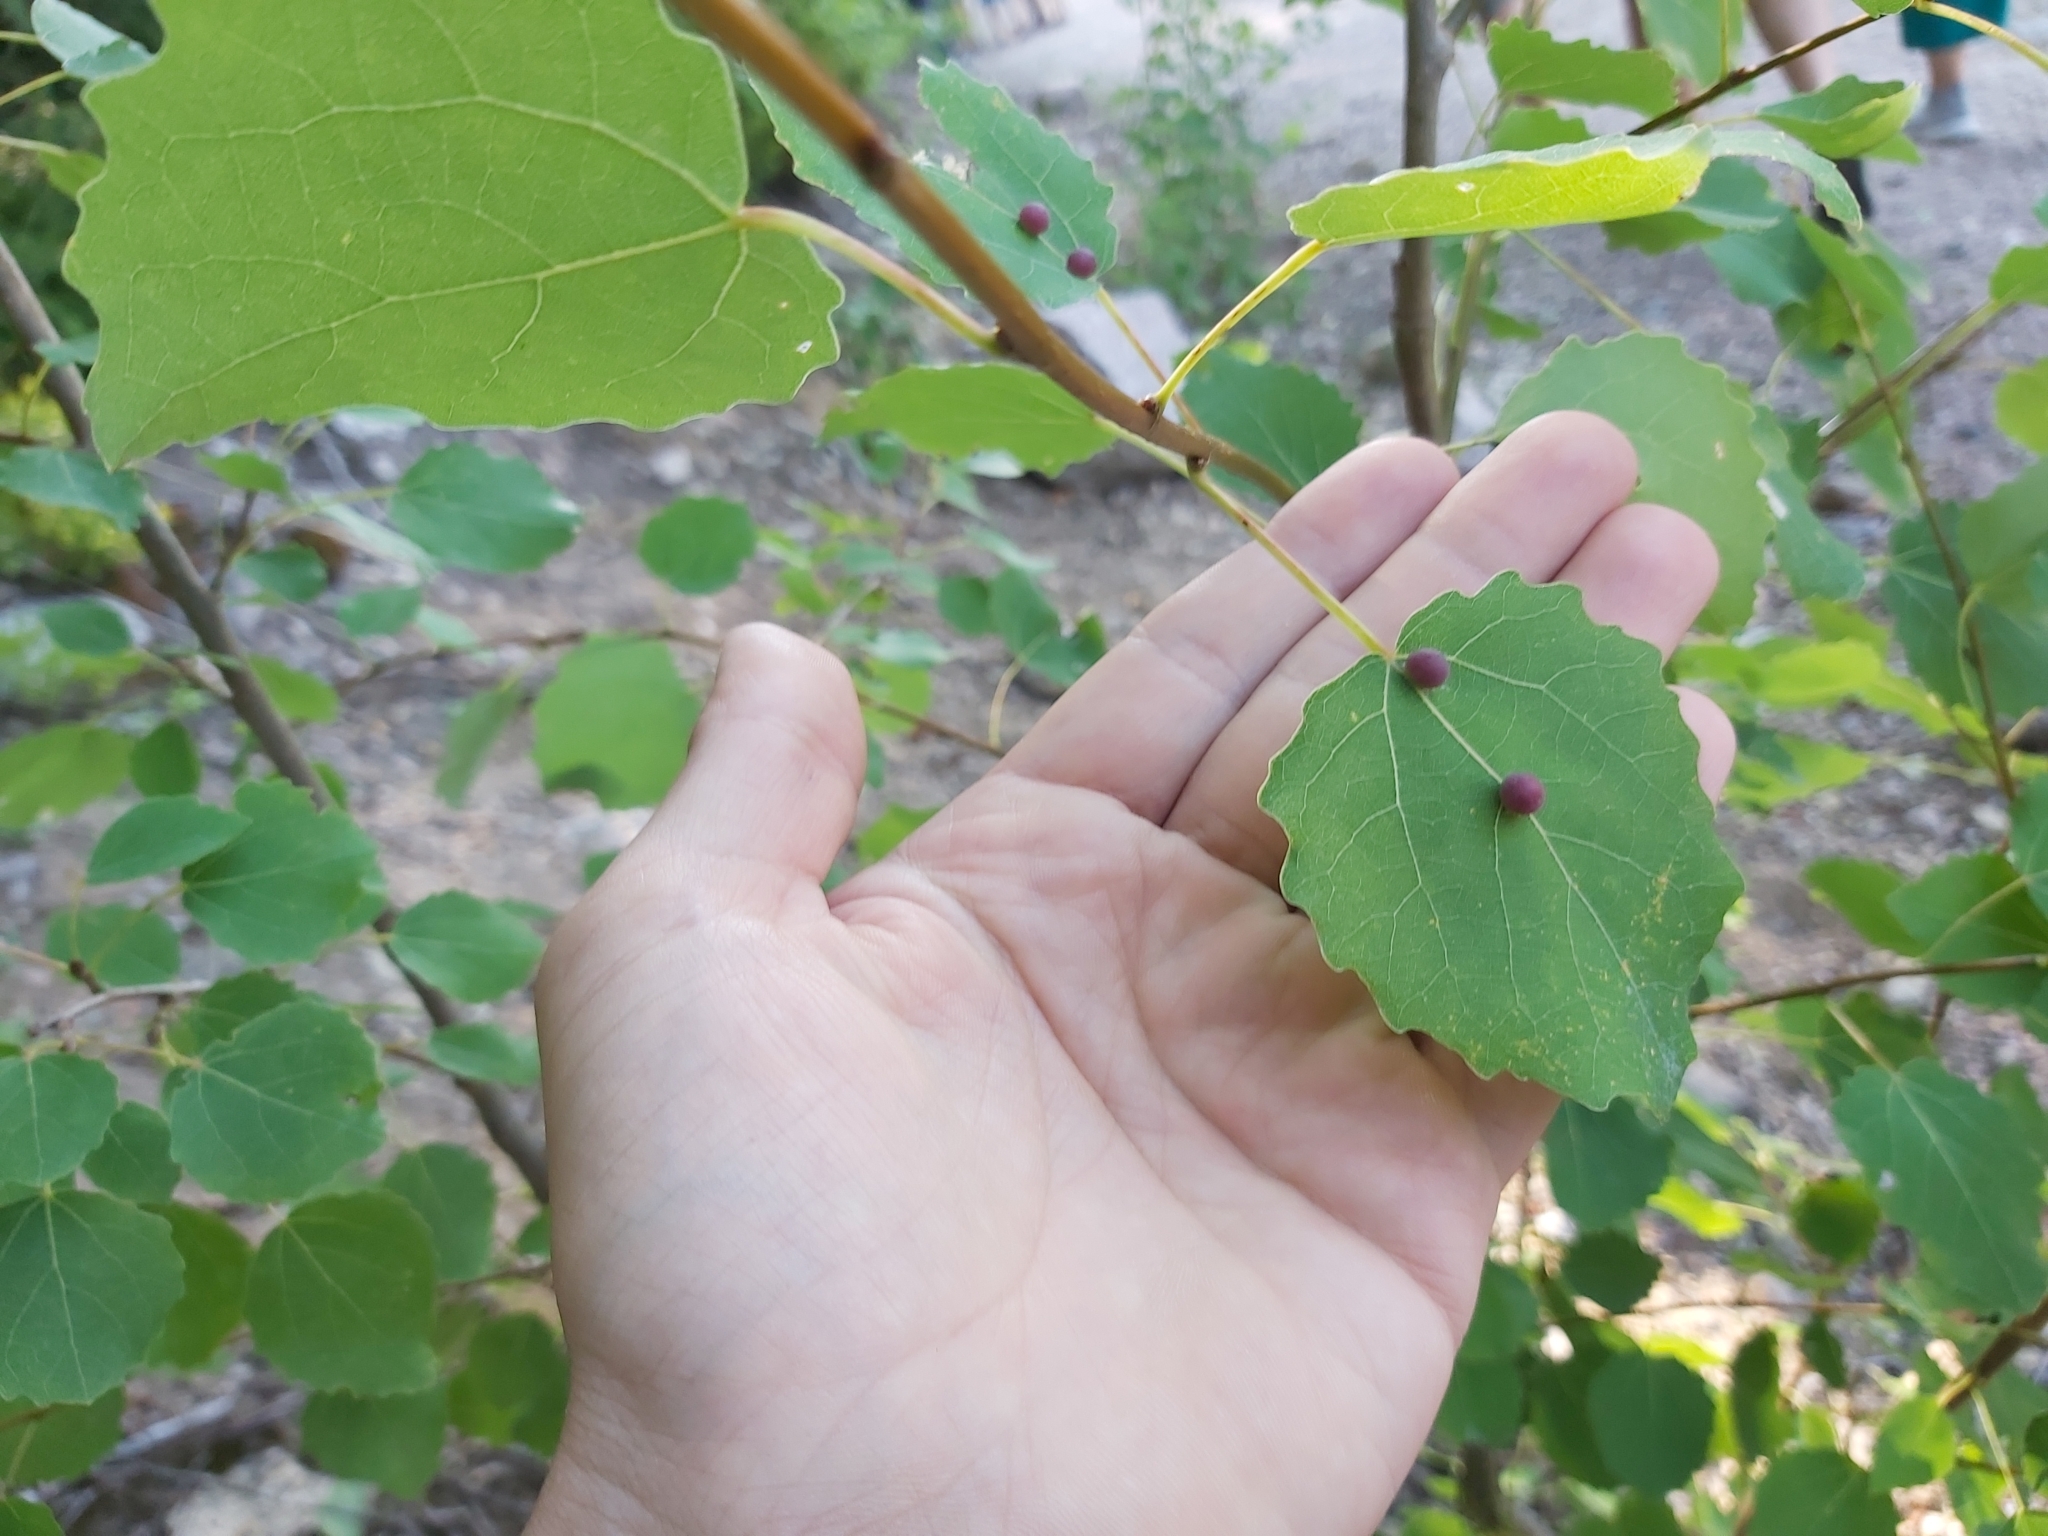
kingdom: Animalia
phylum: Arthropoda
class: Insecta
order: Diptera
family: Cecidomyiidae
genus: Harmandiola
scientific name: Harmandiola tremulae
